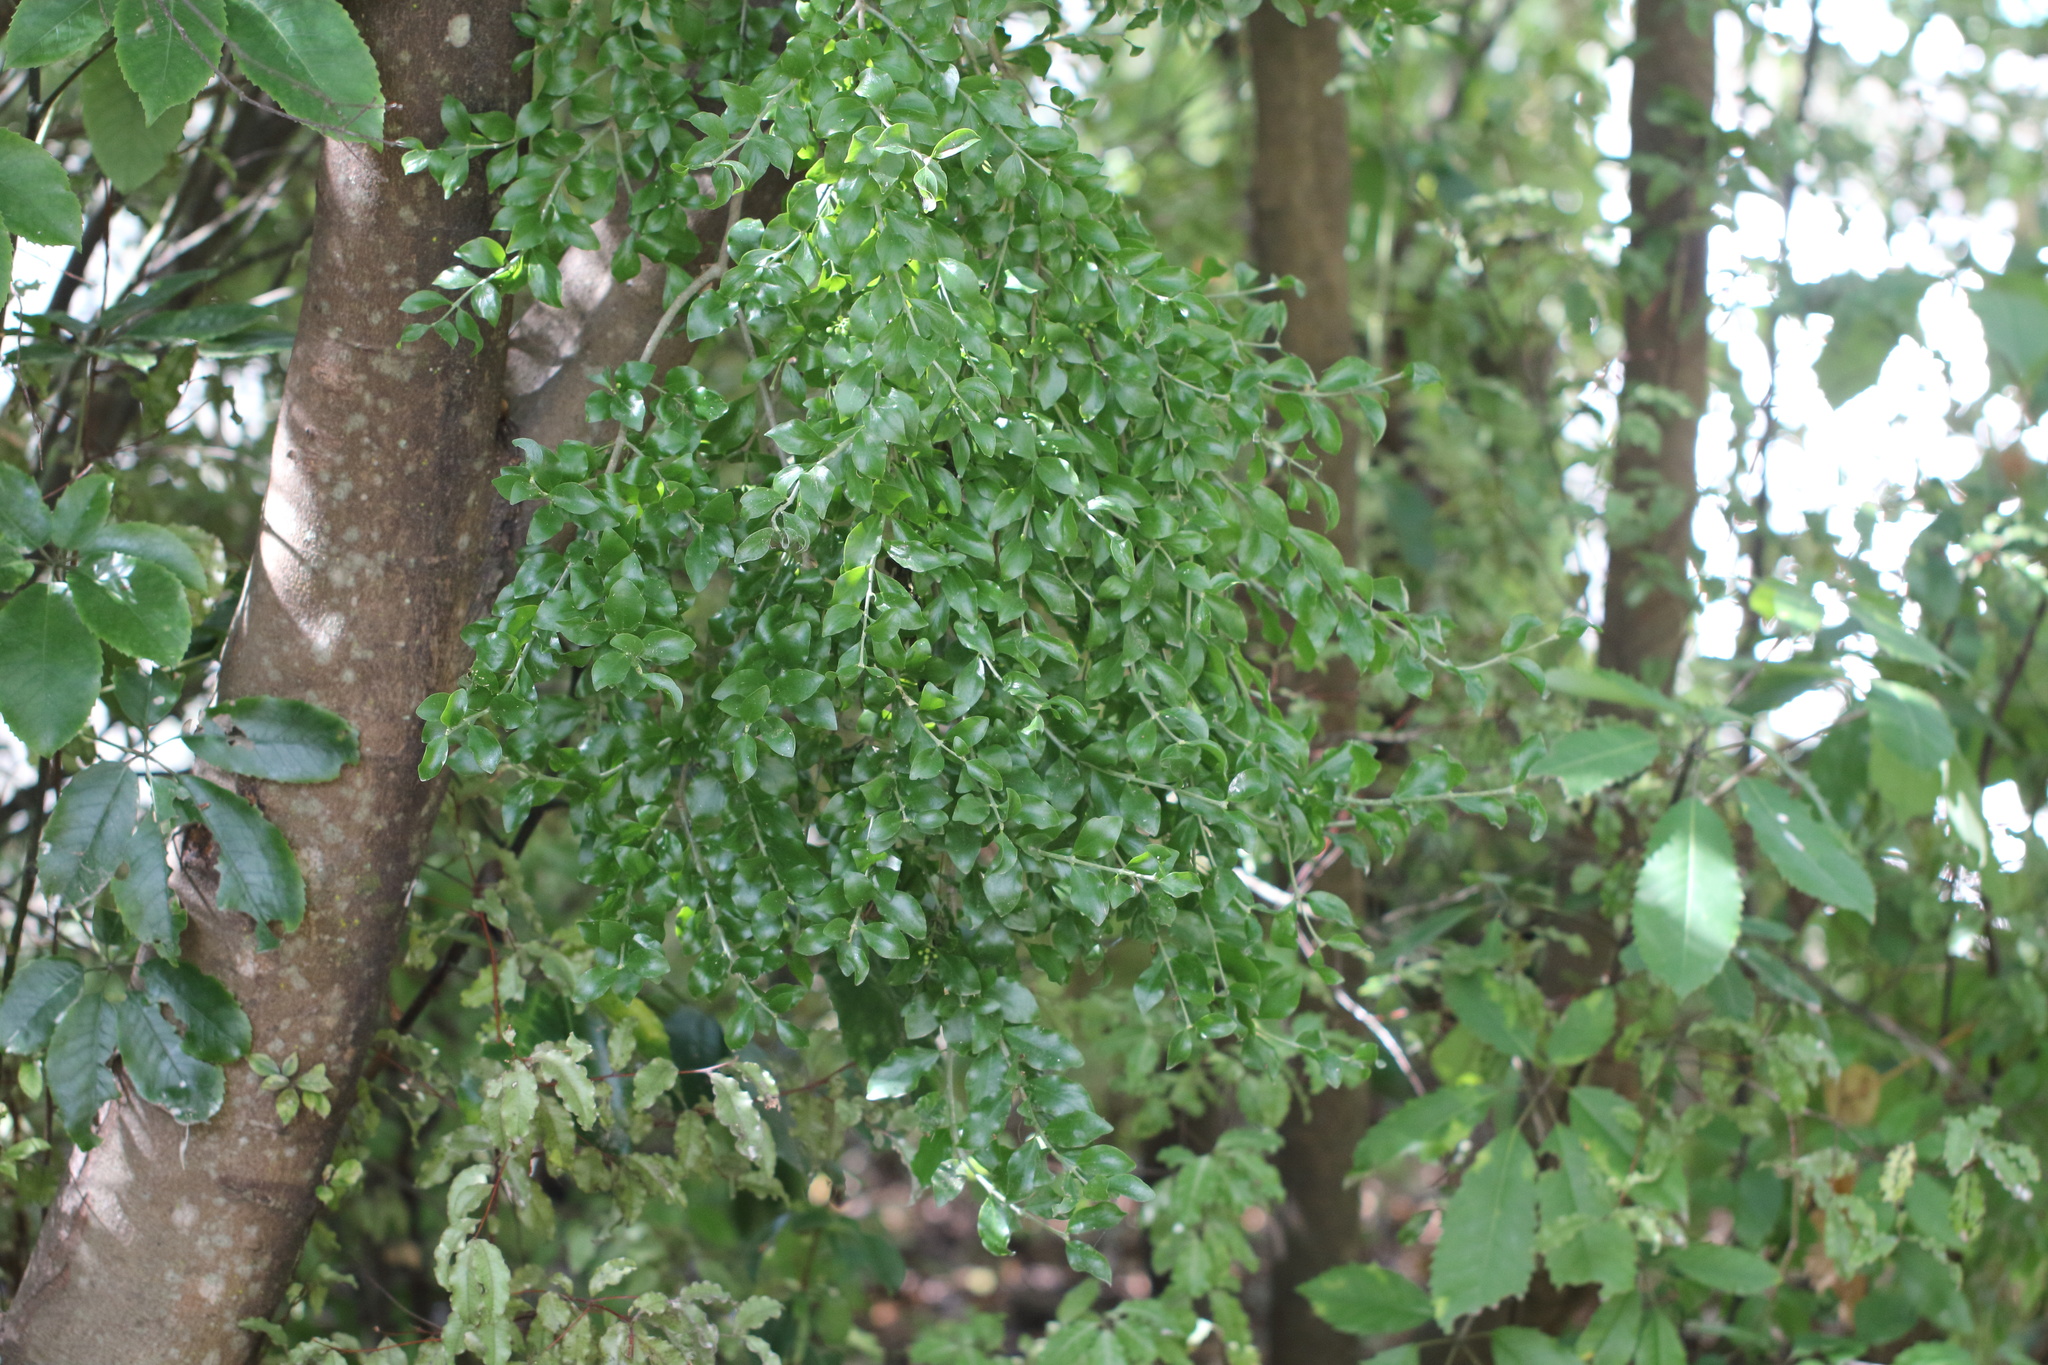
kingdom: Plantae
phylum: Tracheophyta
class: Magnoliopsida
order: Santalales
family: Loranthaceae
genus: Tupeia
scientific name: Tupeia antarctica
